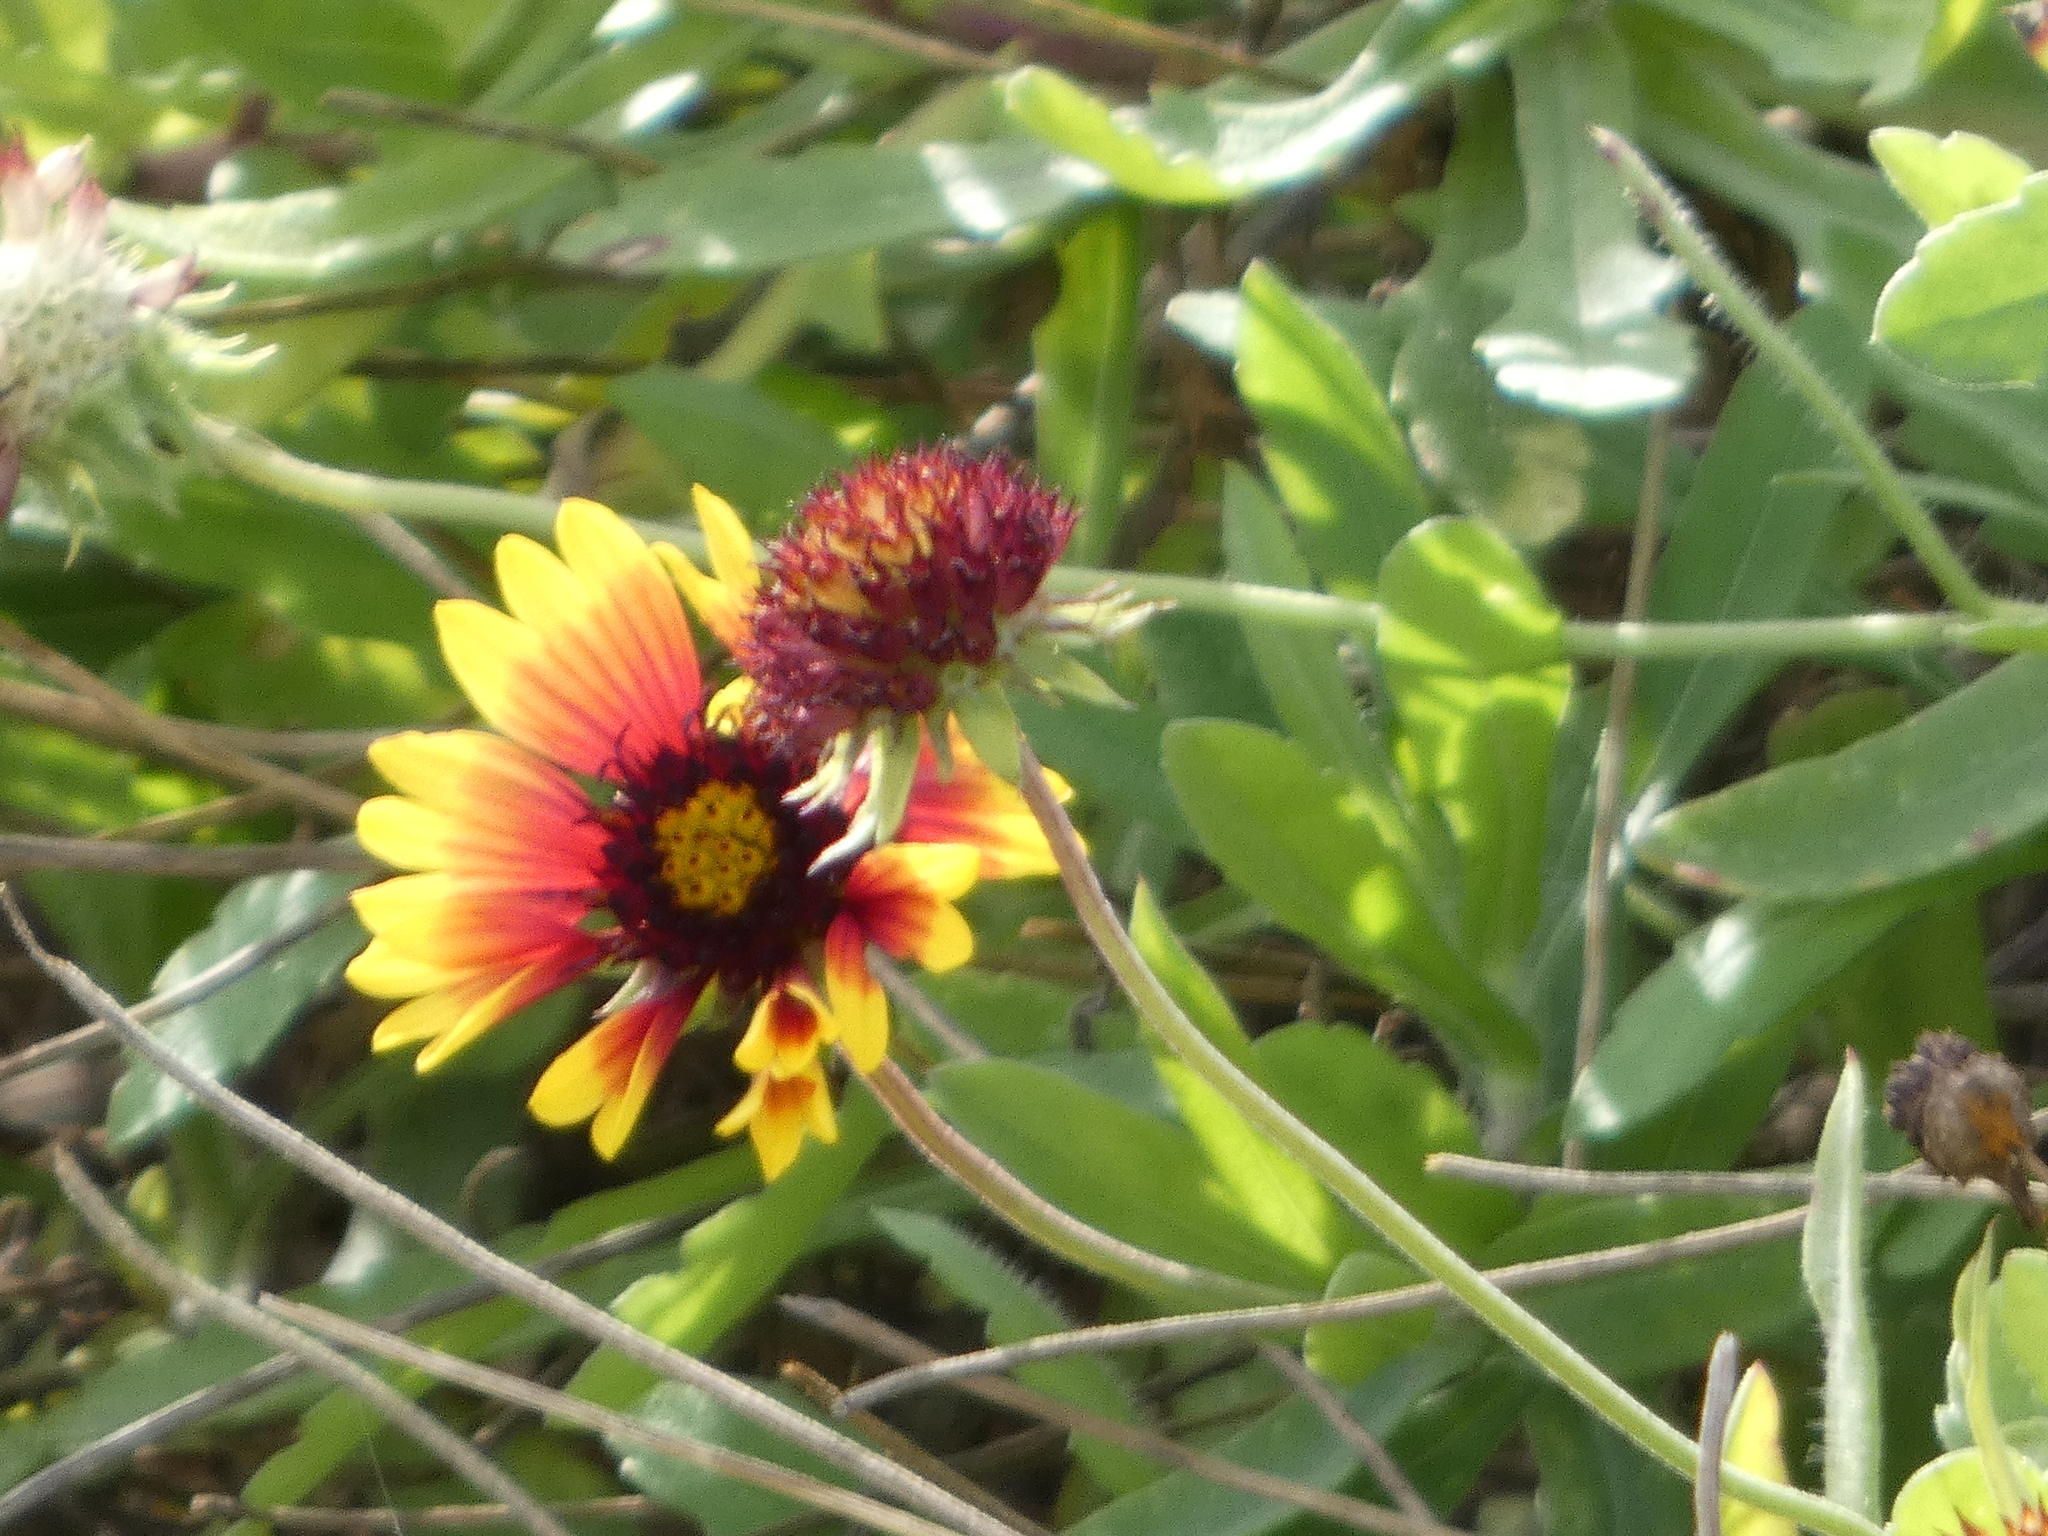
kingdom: Plantae
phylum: Tracheophyta
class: Magnoliopsida
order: Asterales
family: Asteraceae
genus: Gaillardia
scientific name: Gaillardia pulchella
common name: Firewheel
